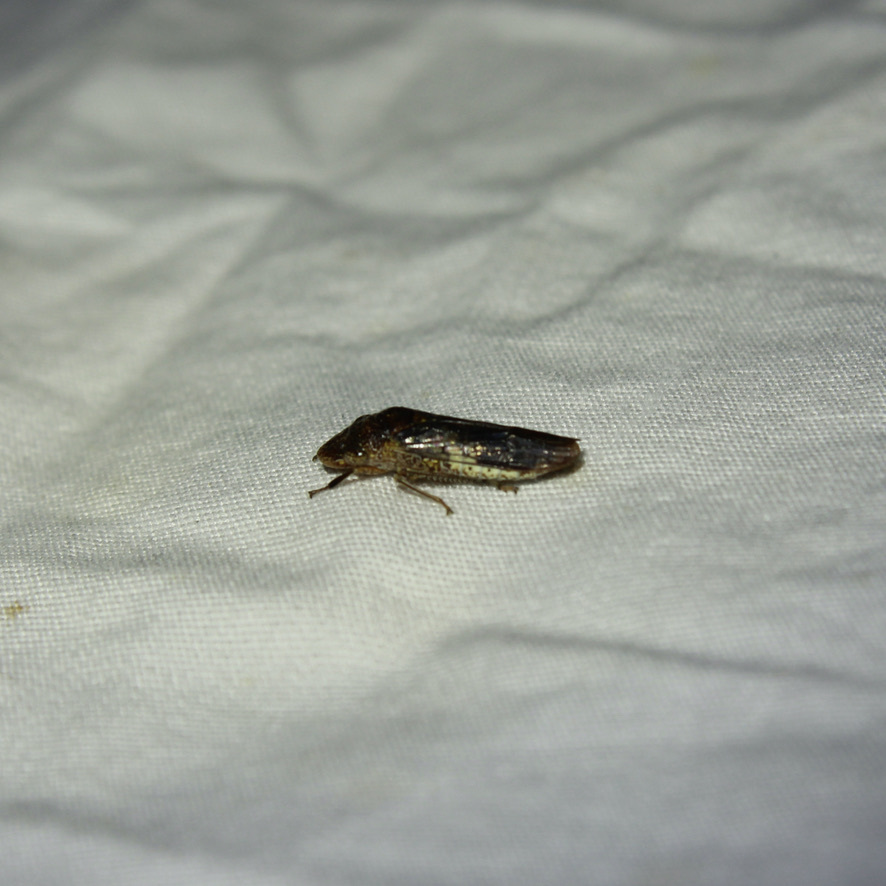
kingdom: Animalia
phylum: Arthropoda
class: Insecta
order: Hemiptera
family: Cicadellidae
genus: Homalodisca
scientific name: Homalodisca vitripennis
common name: Glassy-winged sharpshooter
